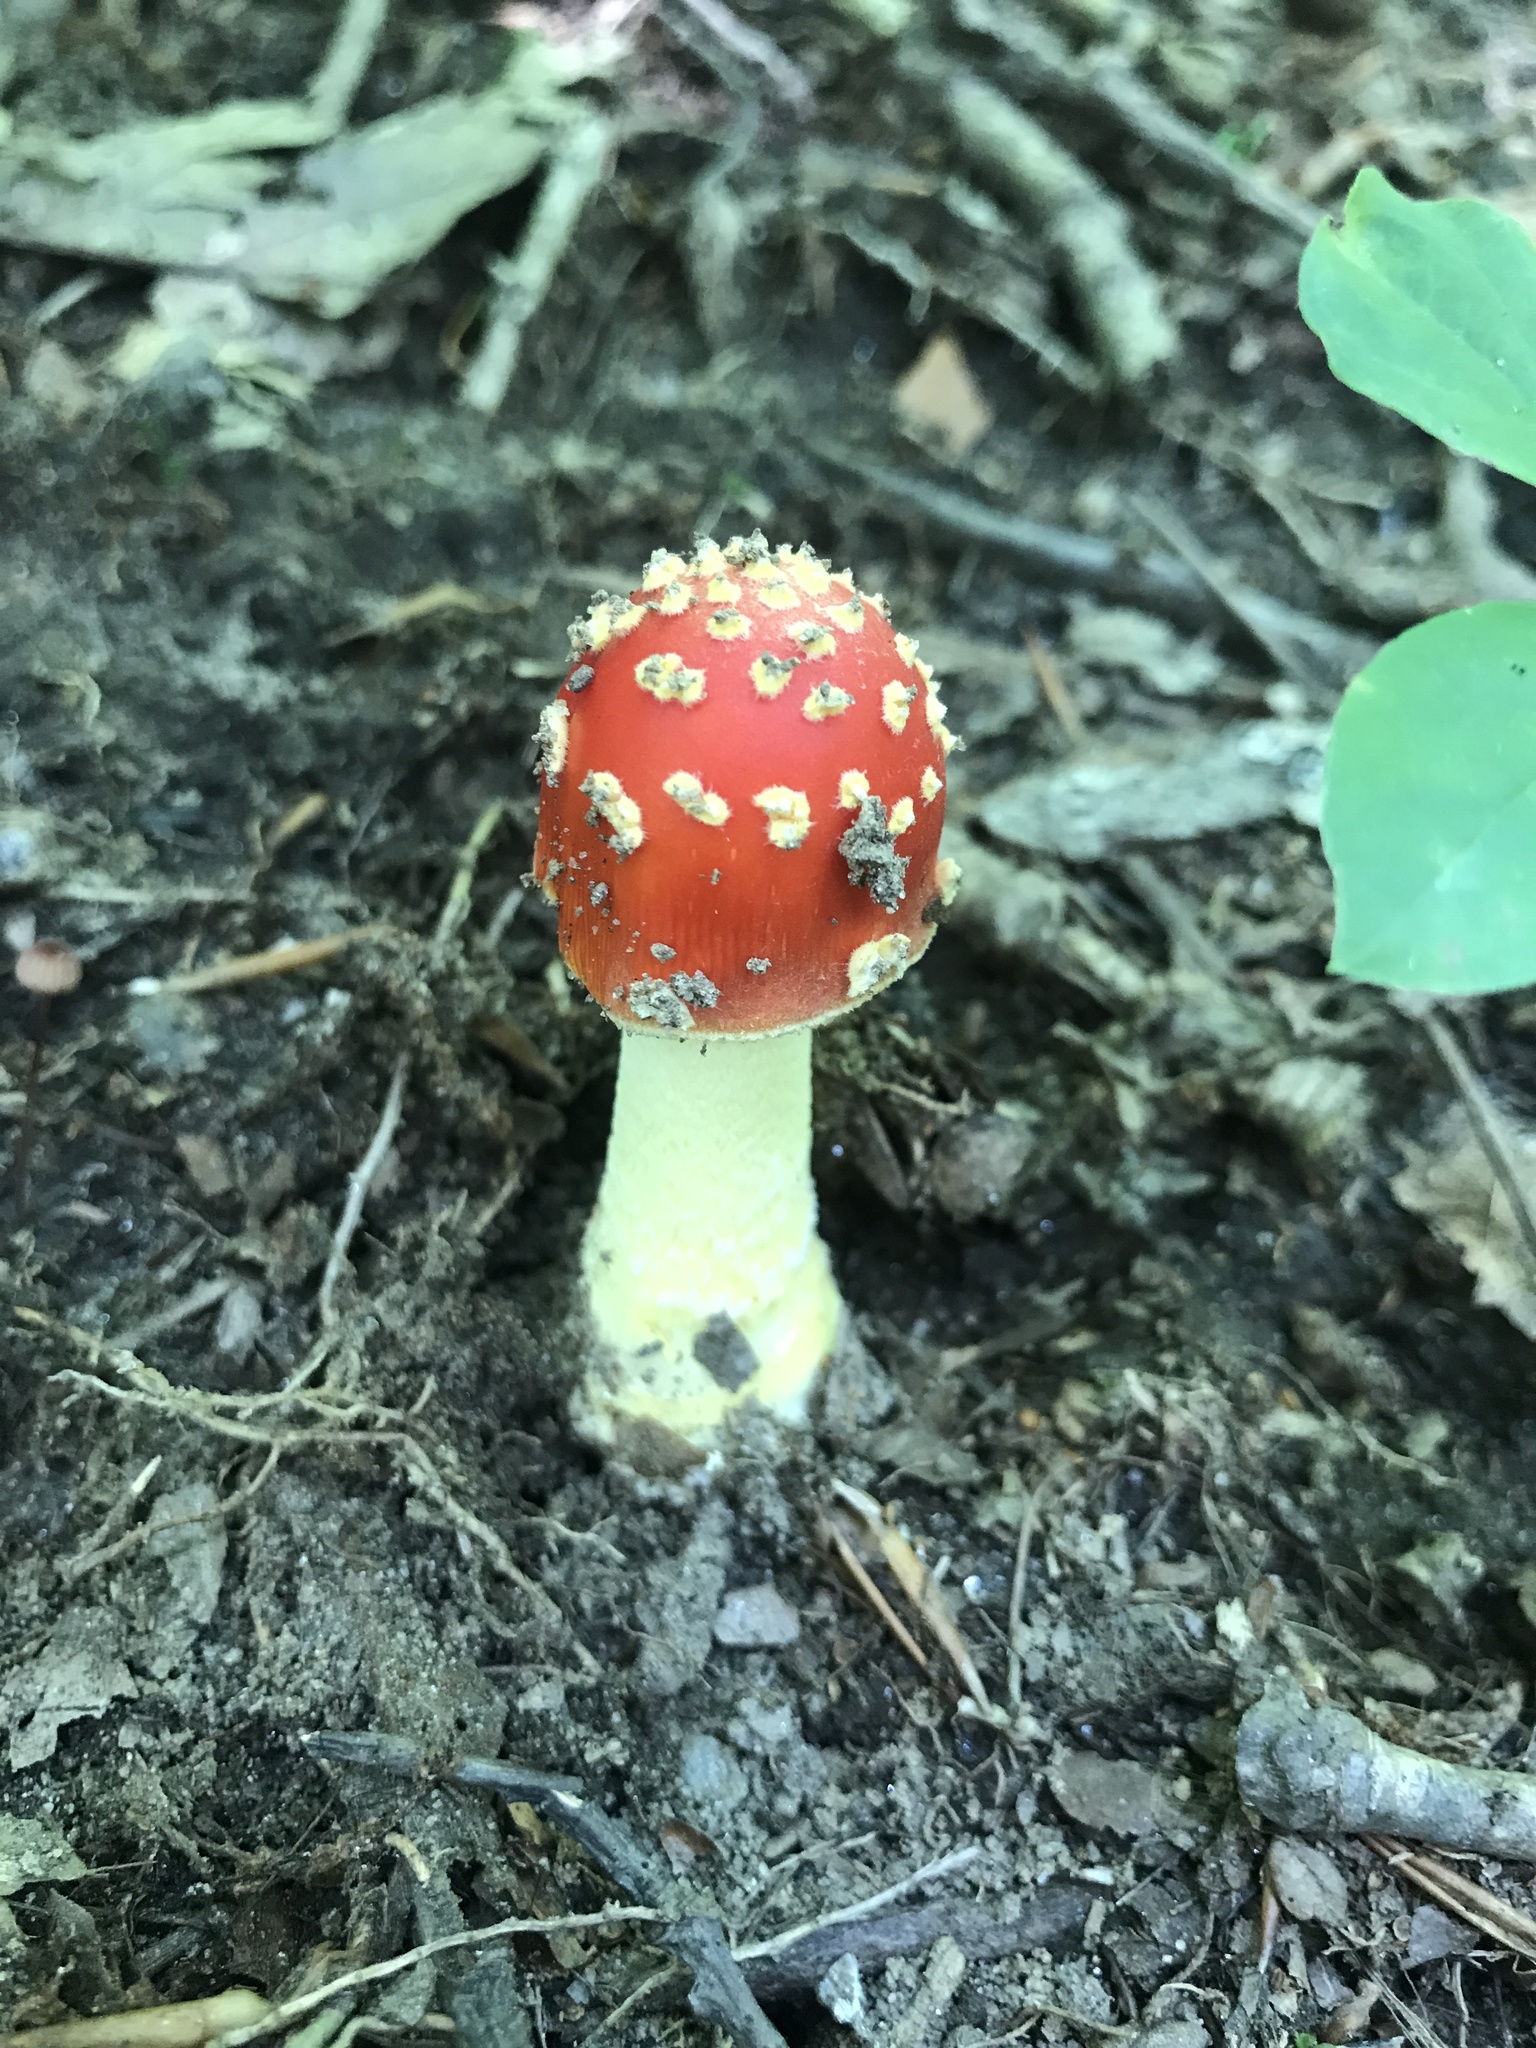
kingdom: Fungi
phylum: Basidiomycota
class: Agaricomycetes
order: Agaricales
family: Amanitaceae
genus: Amanita
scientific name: Amanita parcivolvata
